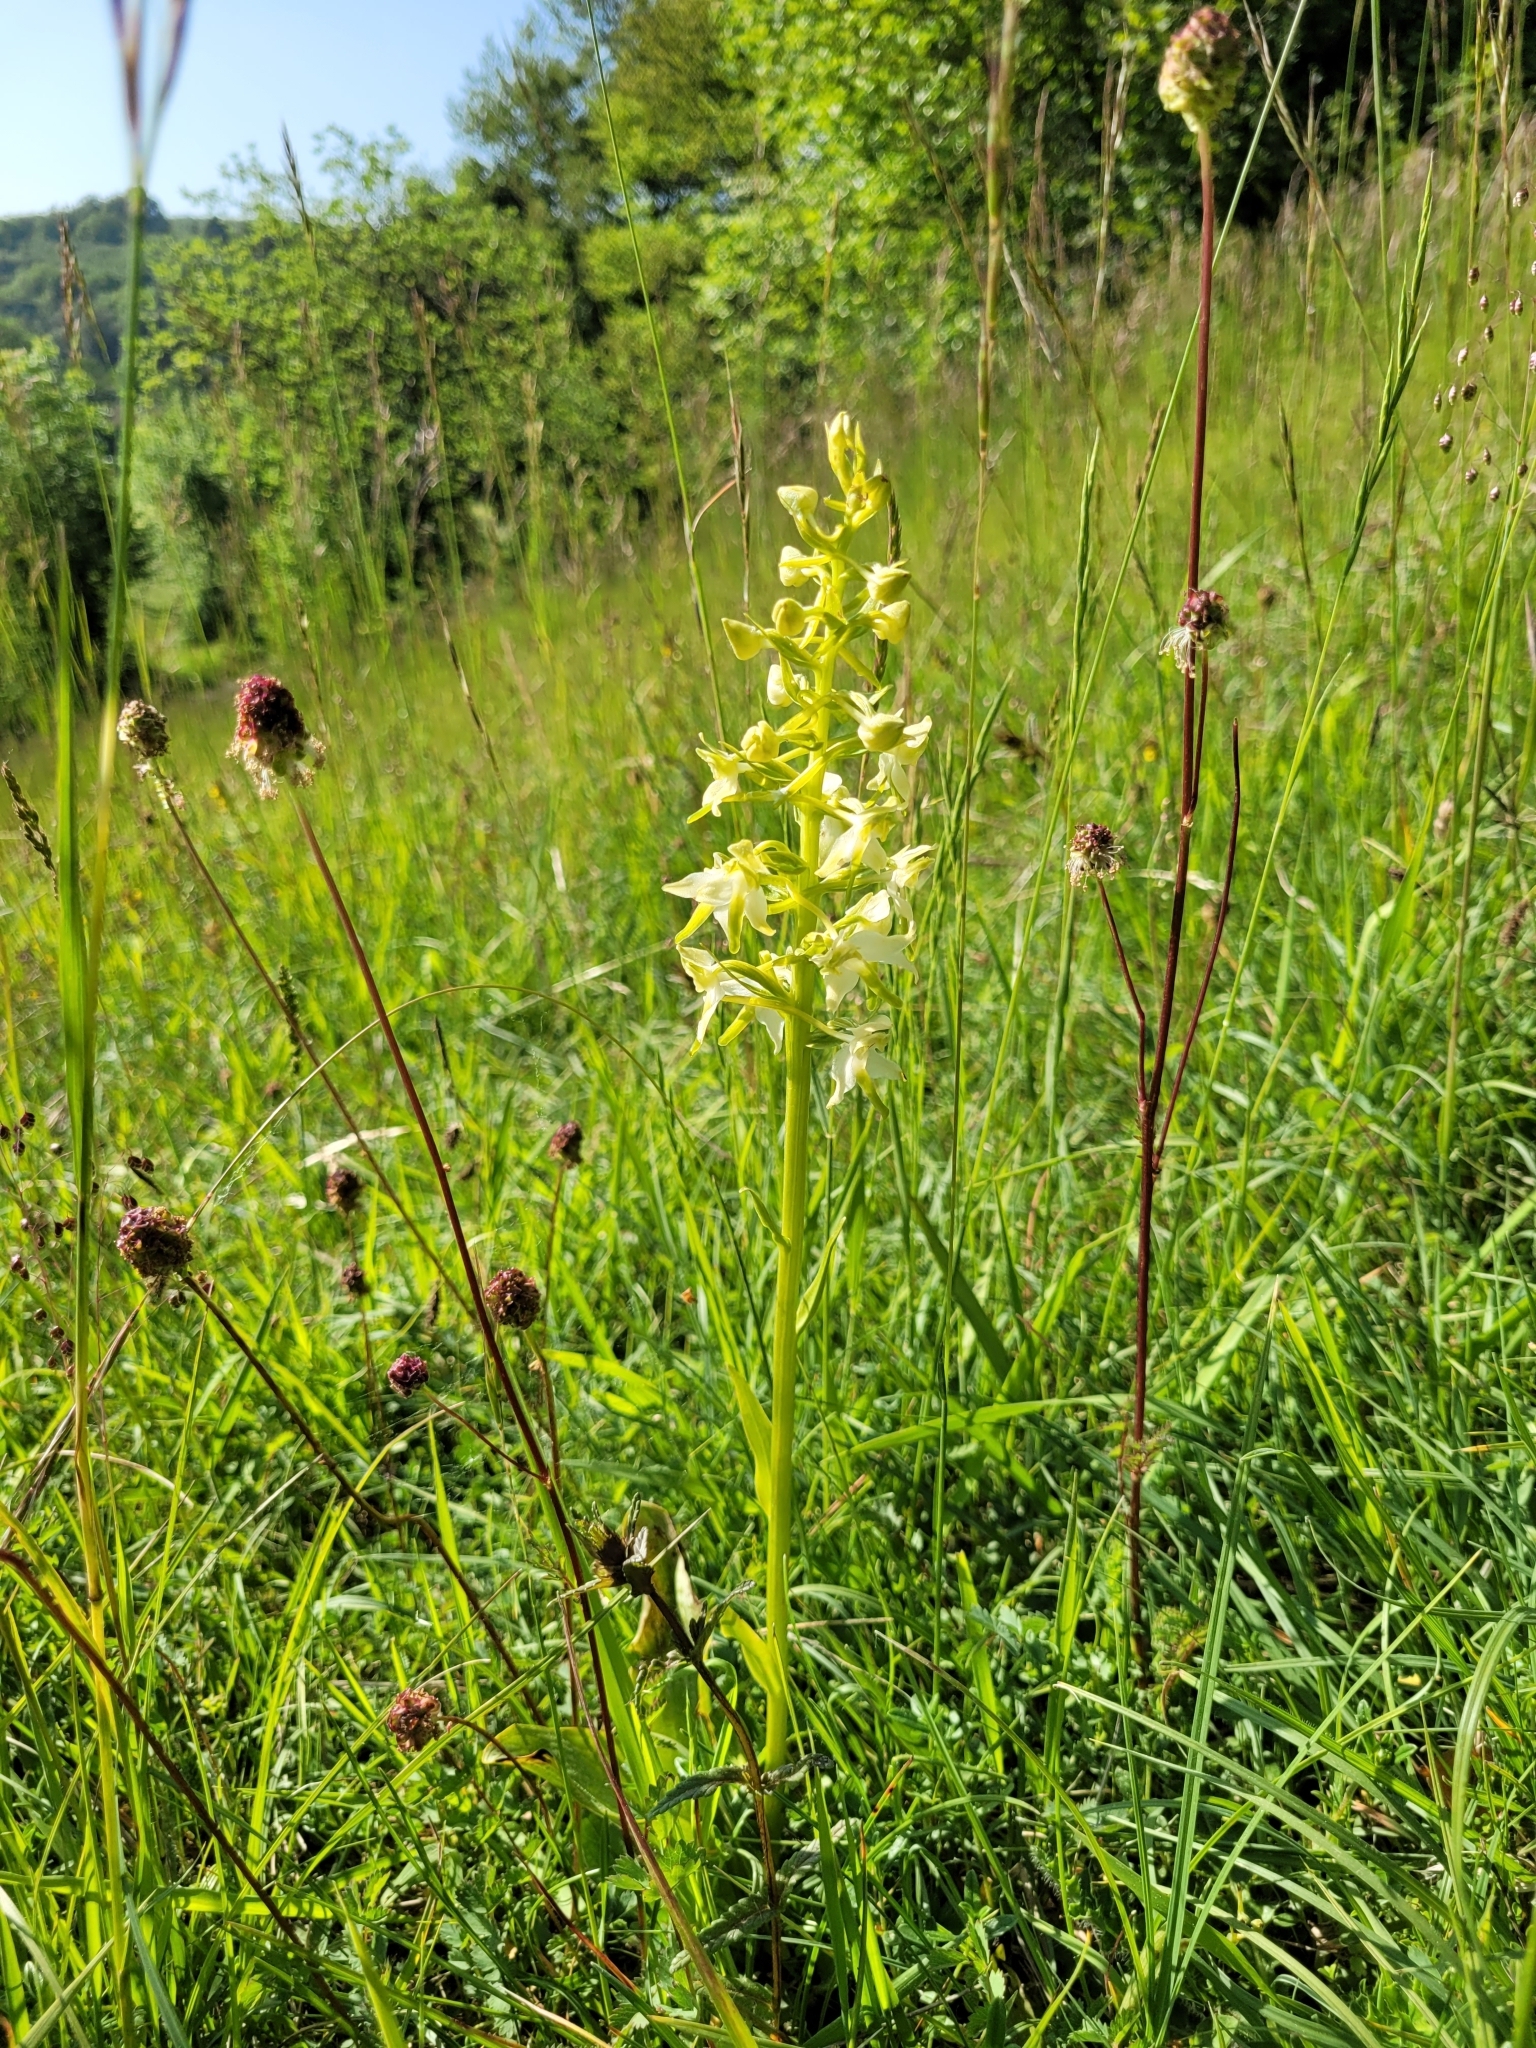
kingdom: Plantae
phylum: Tracheophyta
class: Liliopsida
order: Asparagales
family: Orchidaceae
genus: Platanthera
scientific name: Platanthera chlorantha
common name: Greater butterfly-orchid
